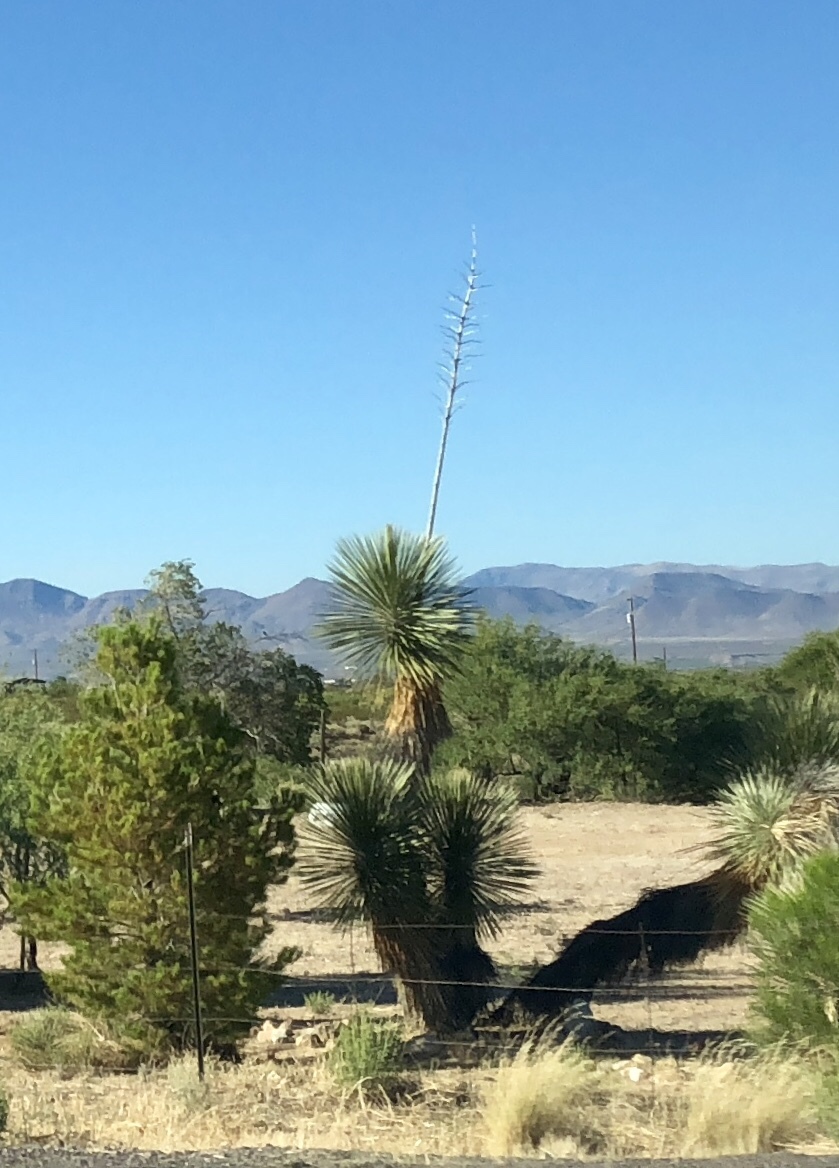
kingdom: Plantae
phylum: Tracheophyta
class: Liliopsida
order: Asparagales
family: Asparagaceae
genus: Yucca
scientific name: Yucca elata
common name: Palmella
